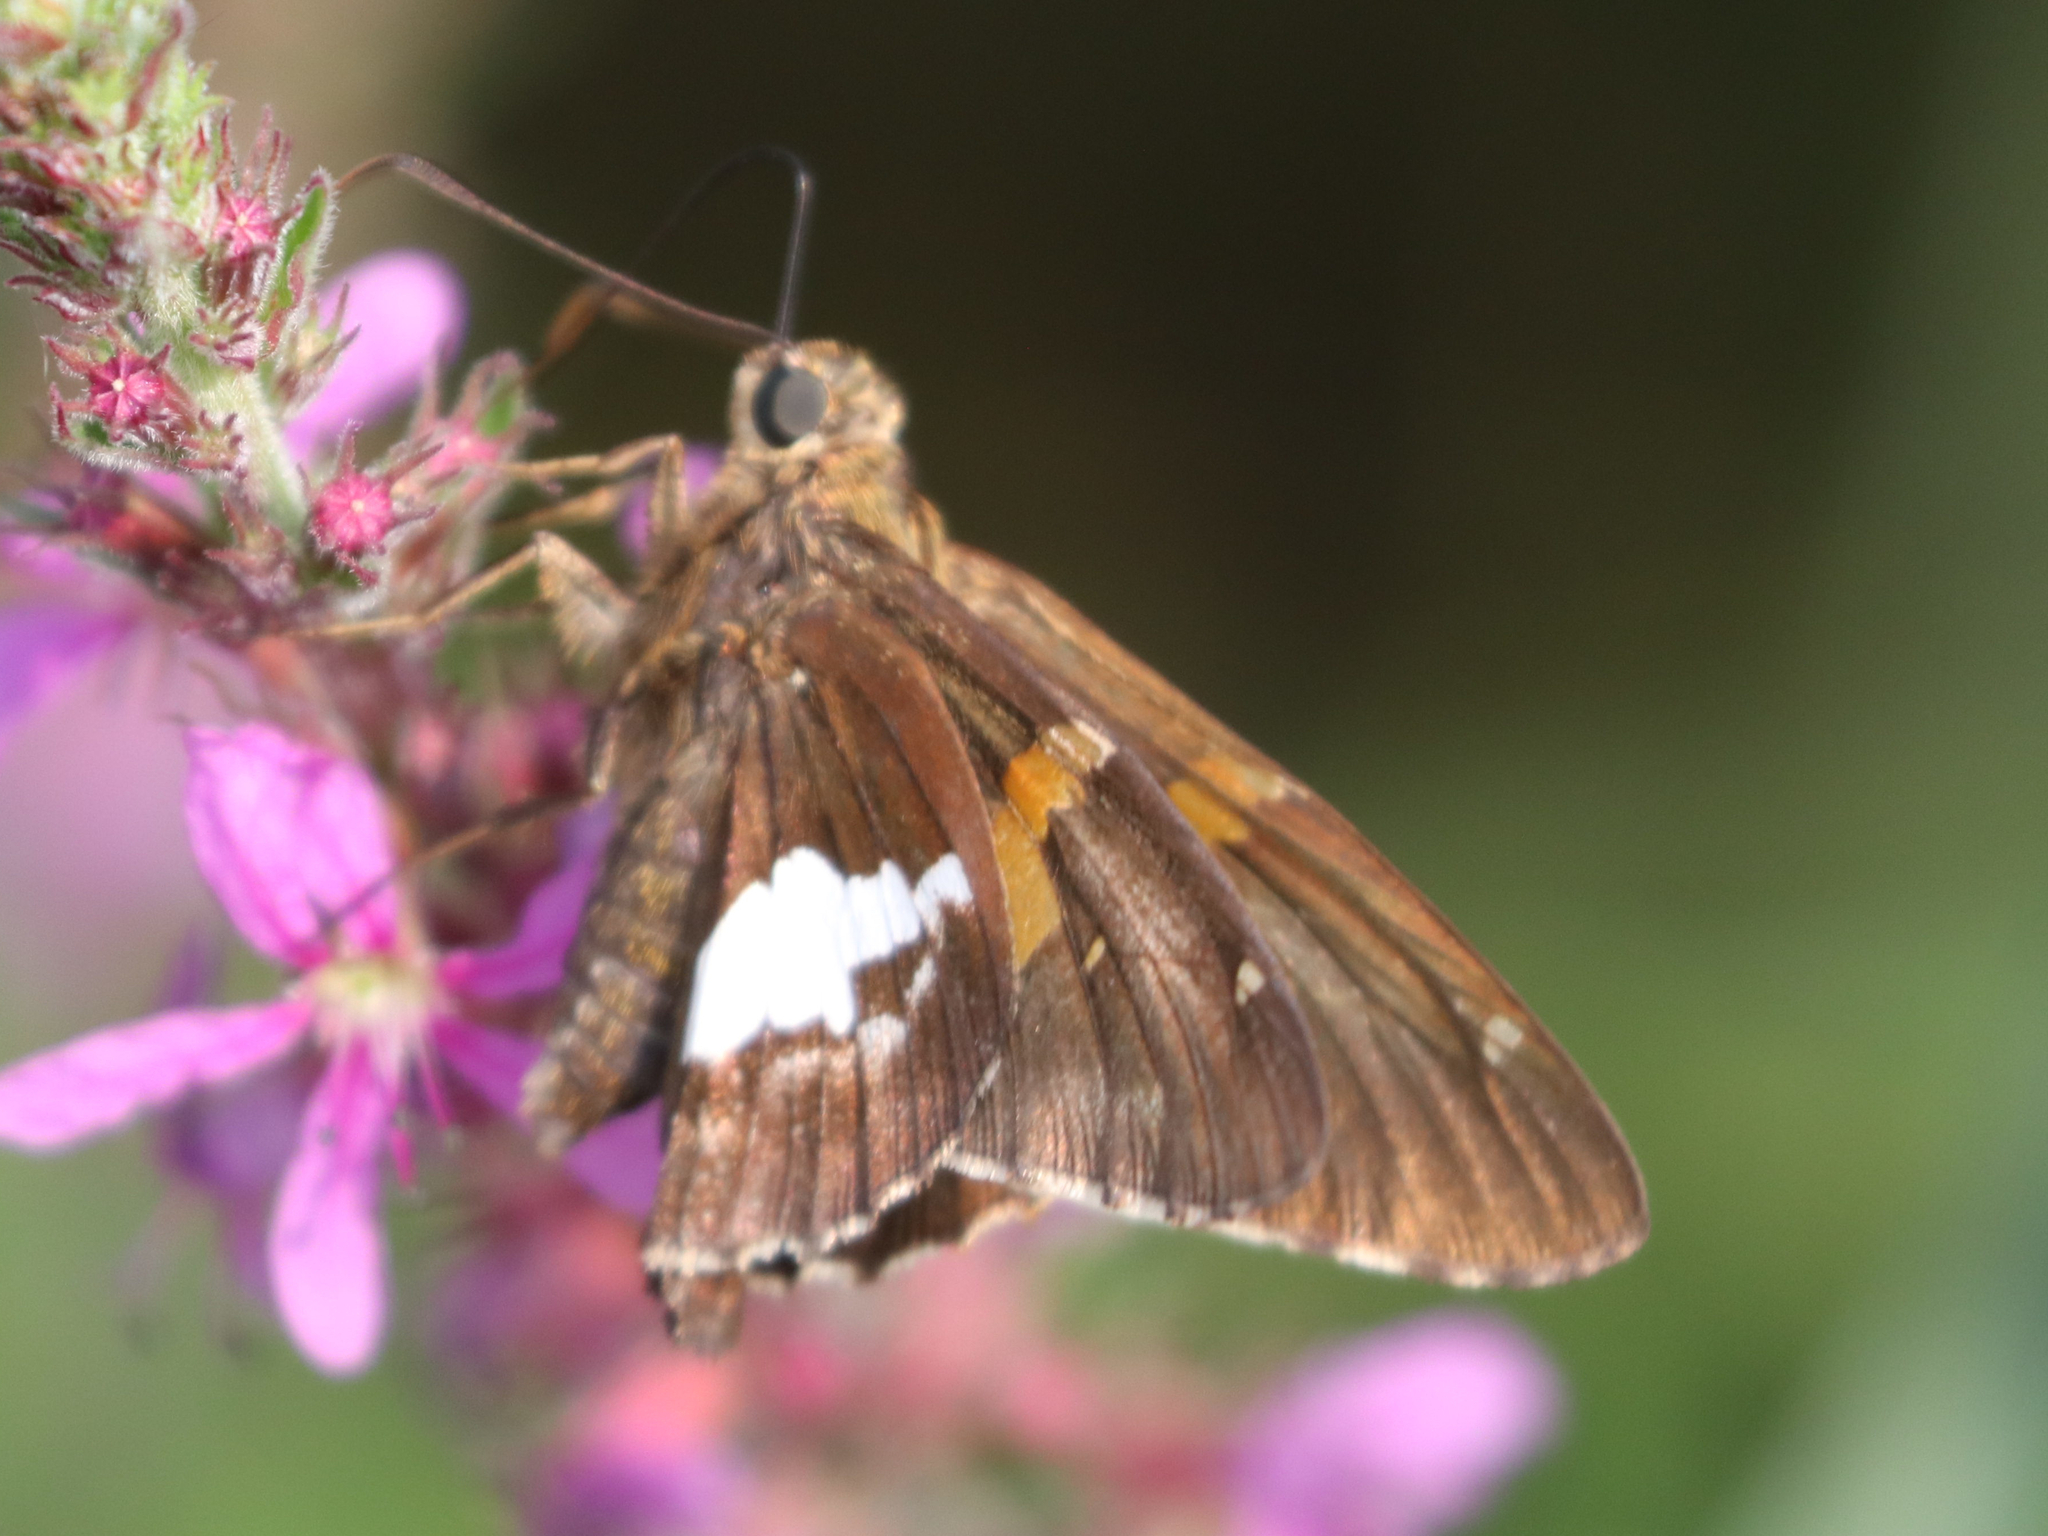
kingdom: Animalia
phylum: Arthropoda
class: Insecta
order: Lepidoptera
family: Hesperiidae
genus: Epargyreus
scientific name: Epargyreus clarus
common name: Silver-spotted skipper
